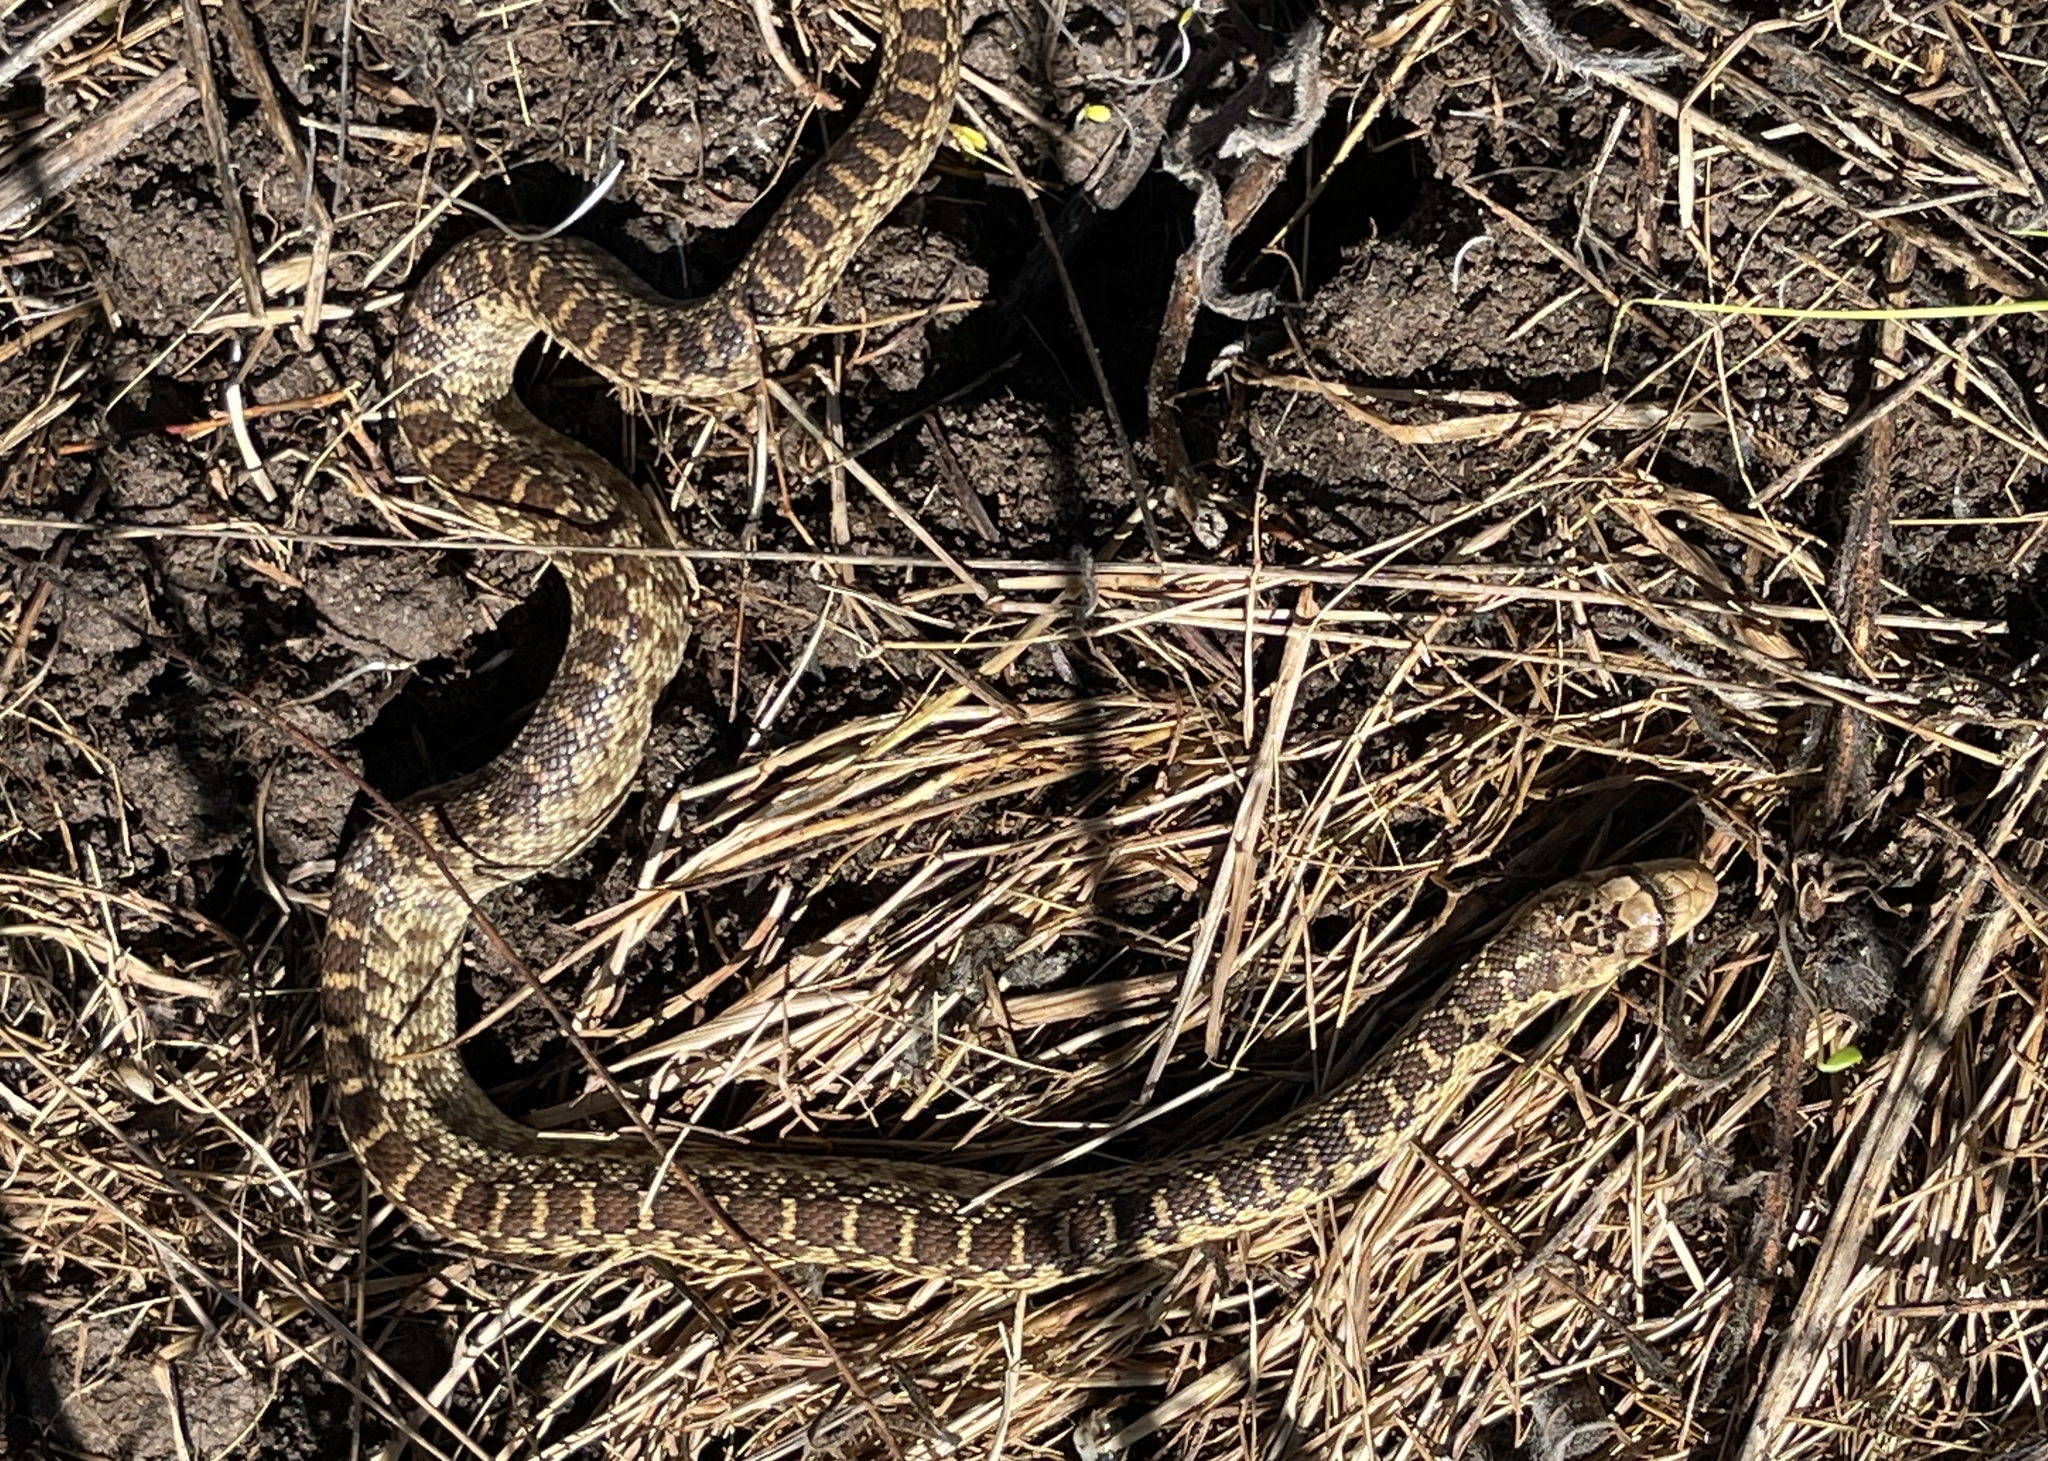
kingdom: Animalia
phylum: Chordata
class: Squamata
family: Colubridae
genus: Pituophis
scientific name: Pituophis catenifer
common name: Gopher snake
